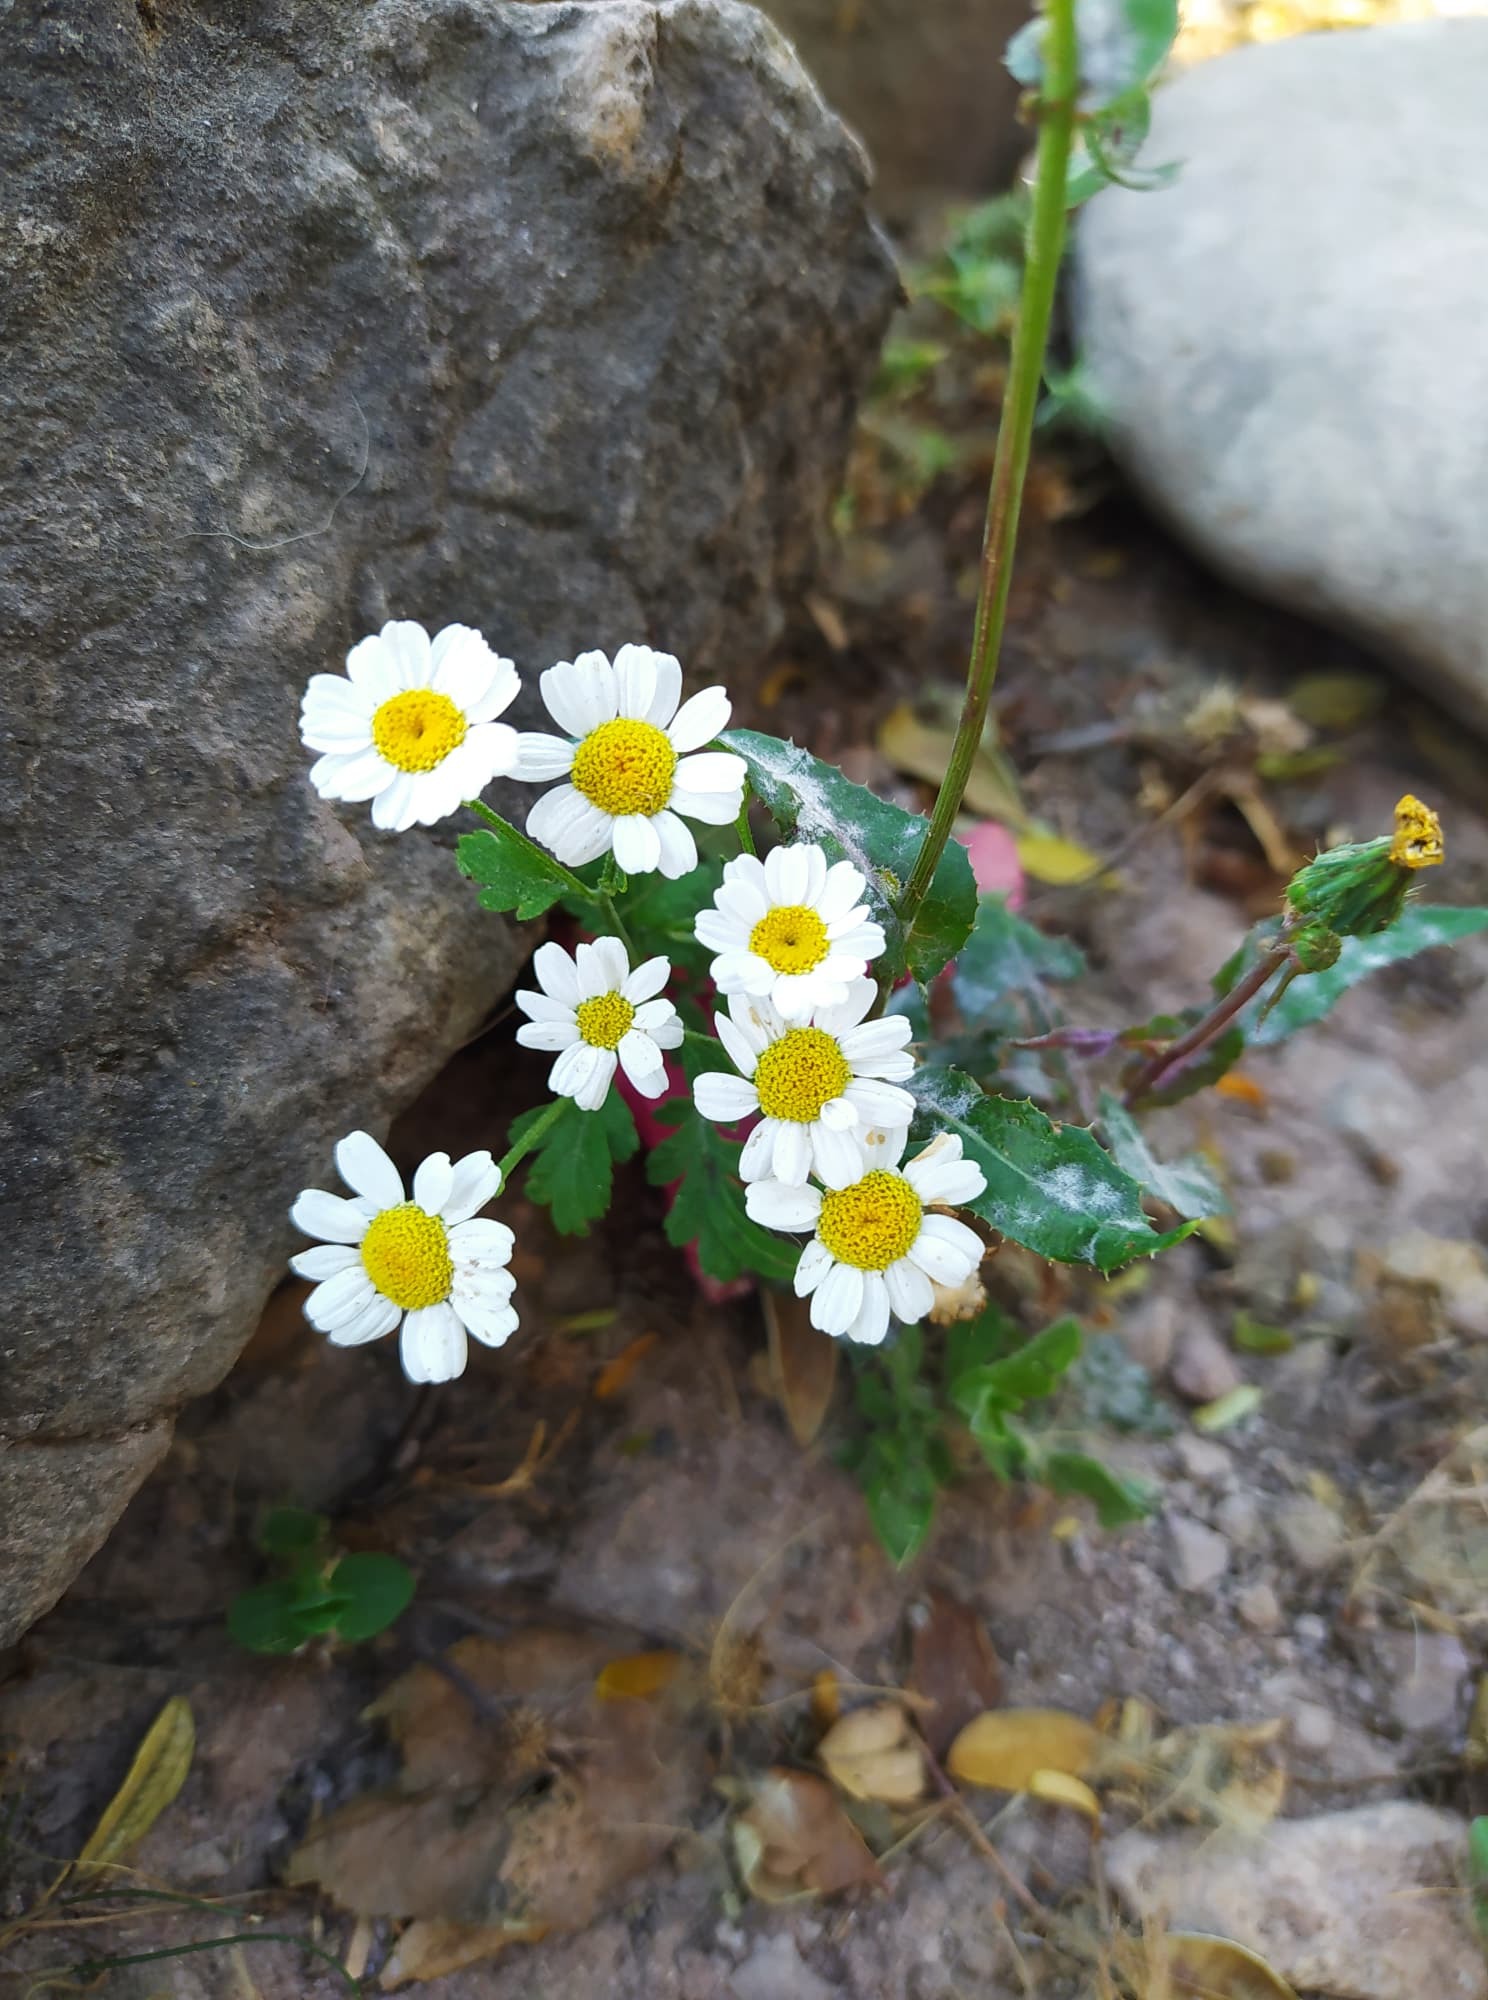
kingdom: Plantae
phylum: Tracheophyta
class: Magnoliopsida
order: Asterales
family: Asteraceae
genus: Tanacetum
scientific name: Tanacetum parthenium
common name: Feverfew
